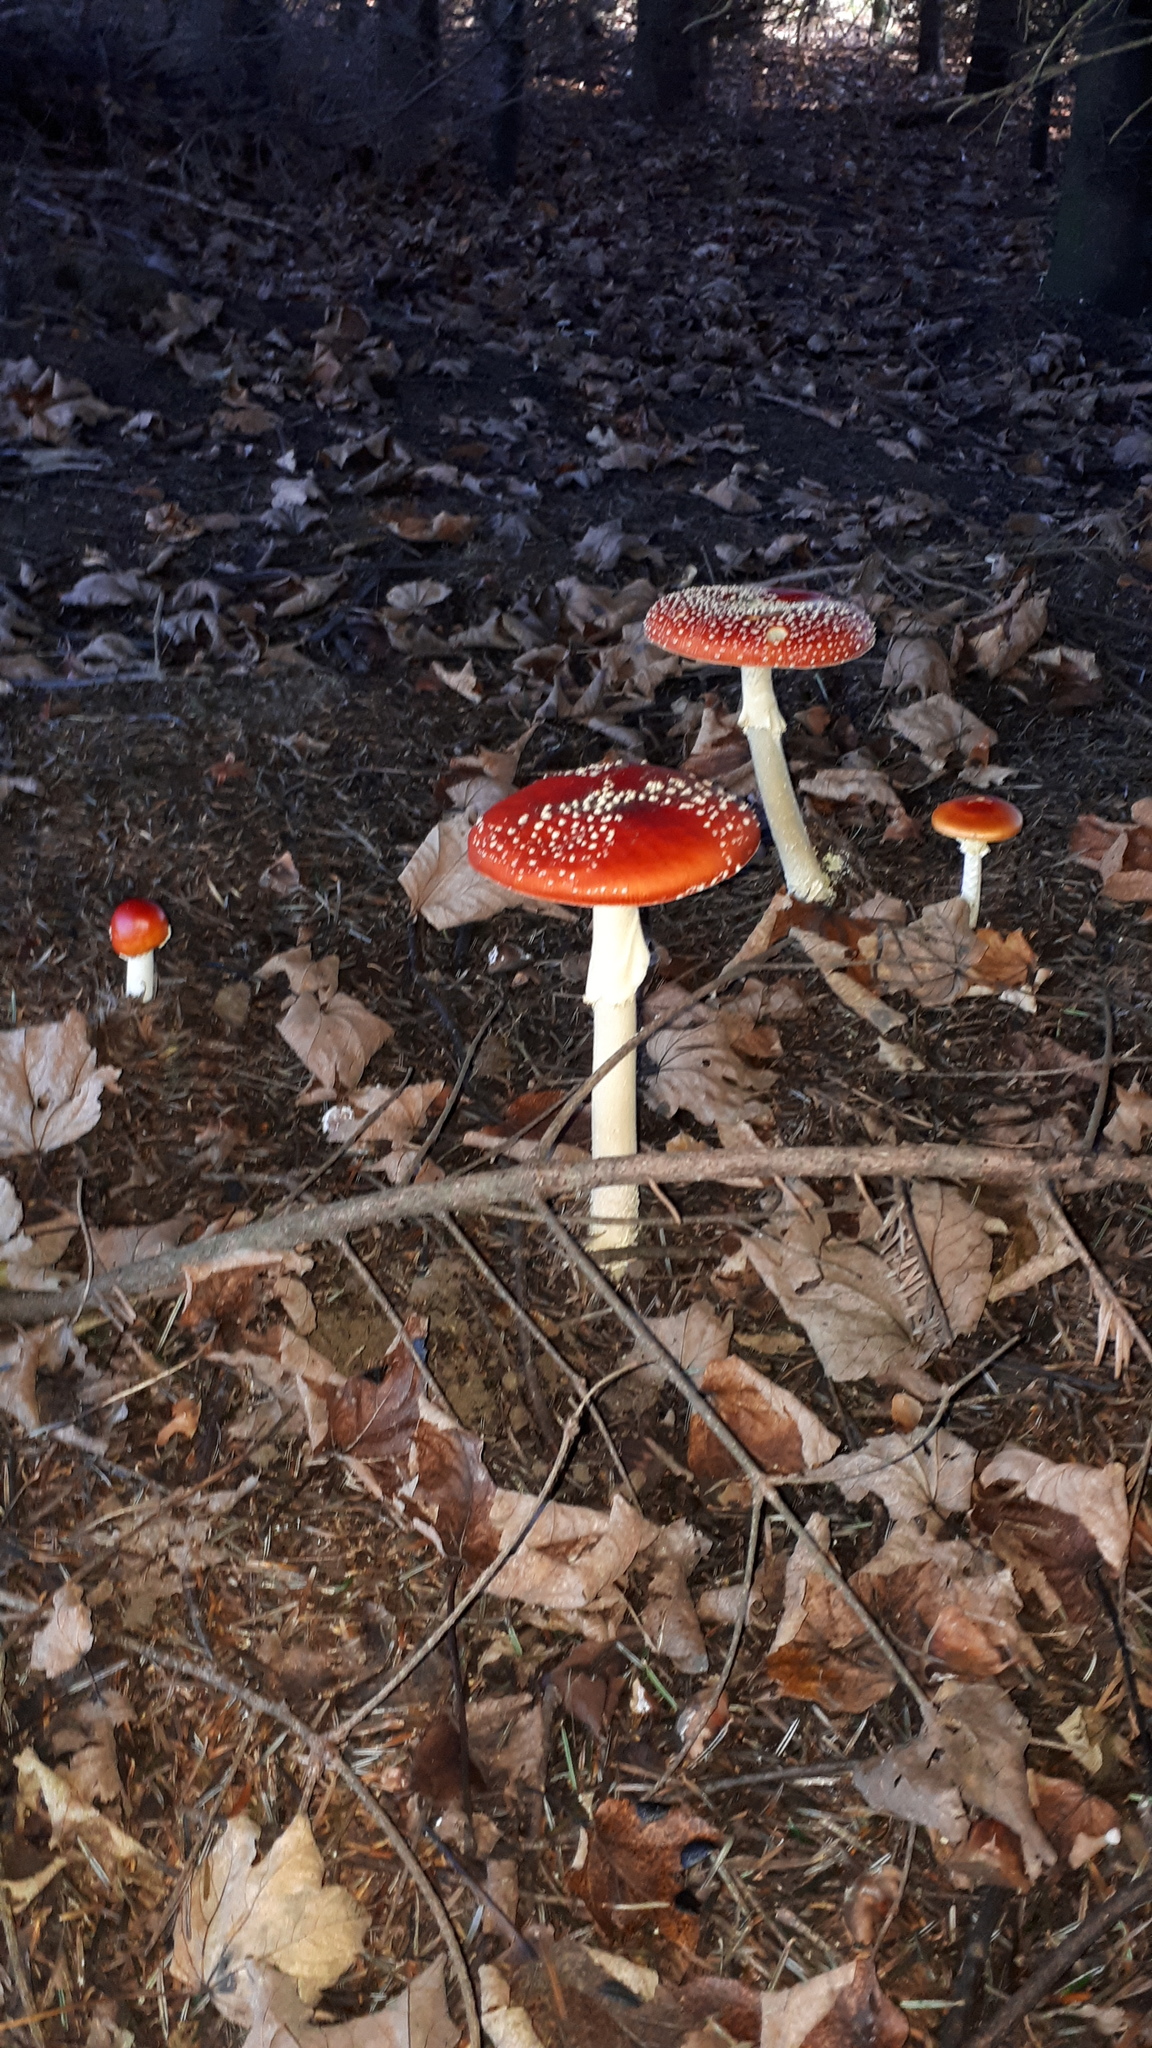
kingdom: Fungi
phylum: Basidiomycota
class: Agaricomycetes
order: Agaricales
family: Amanitaceae
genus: Amanita
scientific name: Amanita muscaria
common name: Fly agaric
